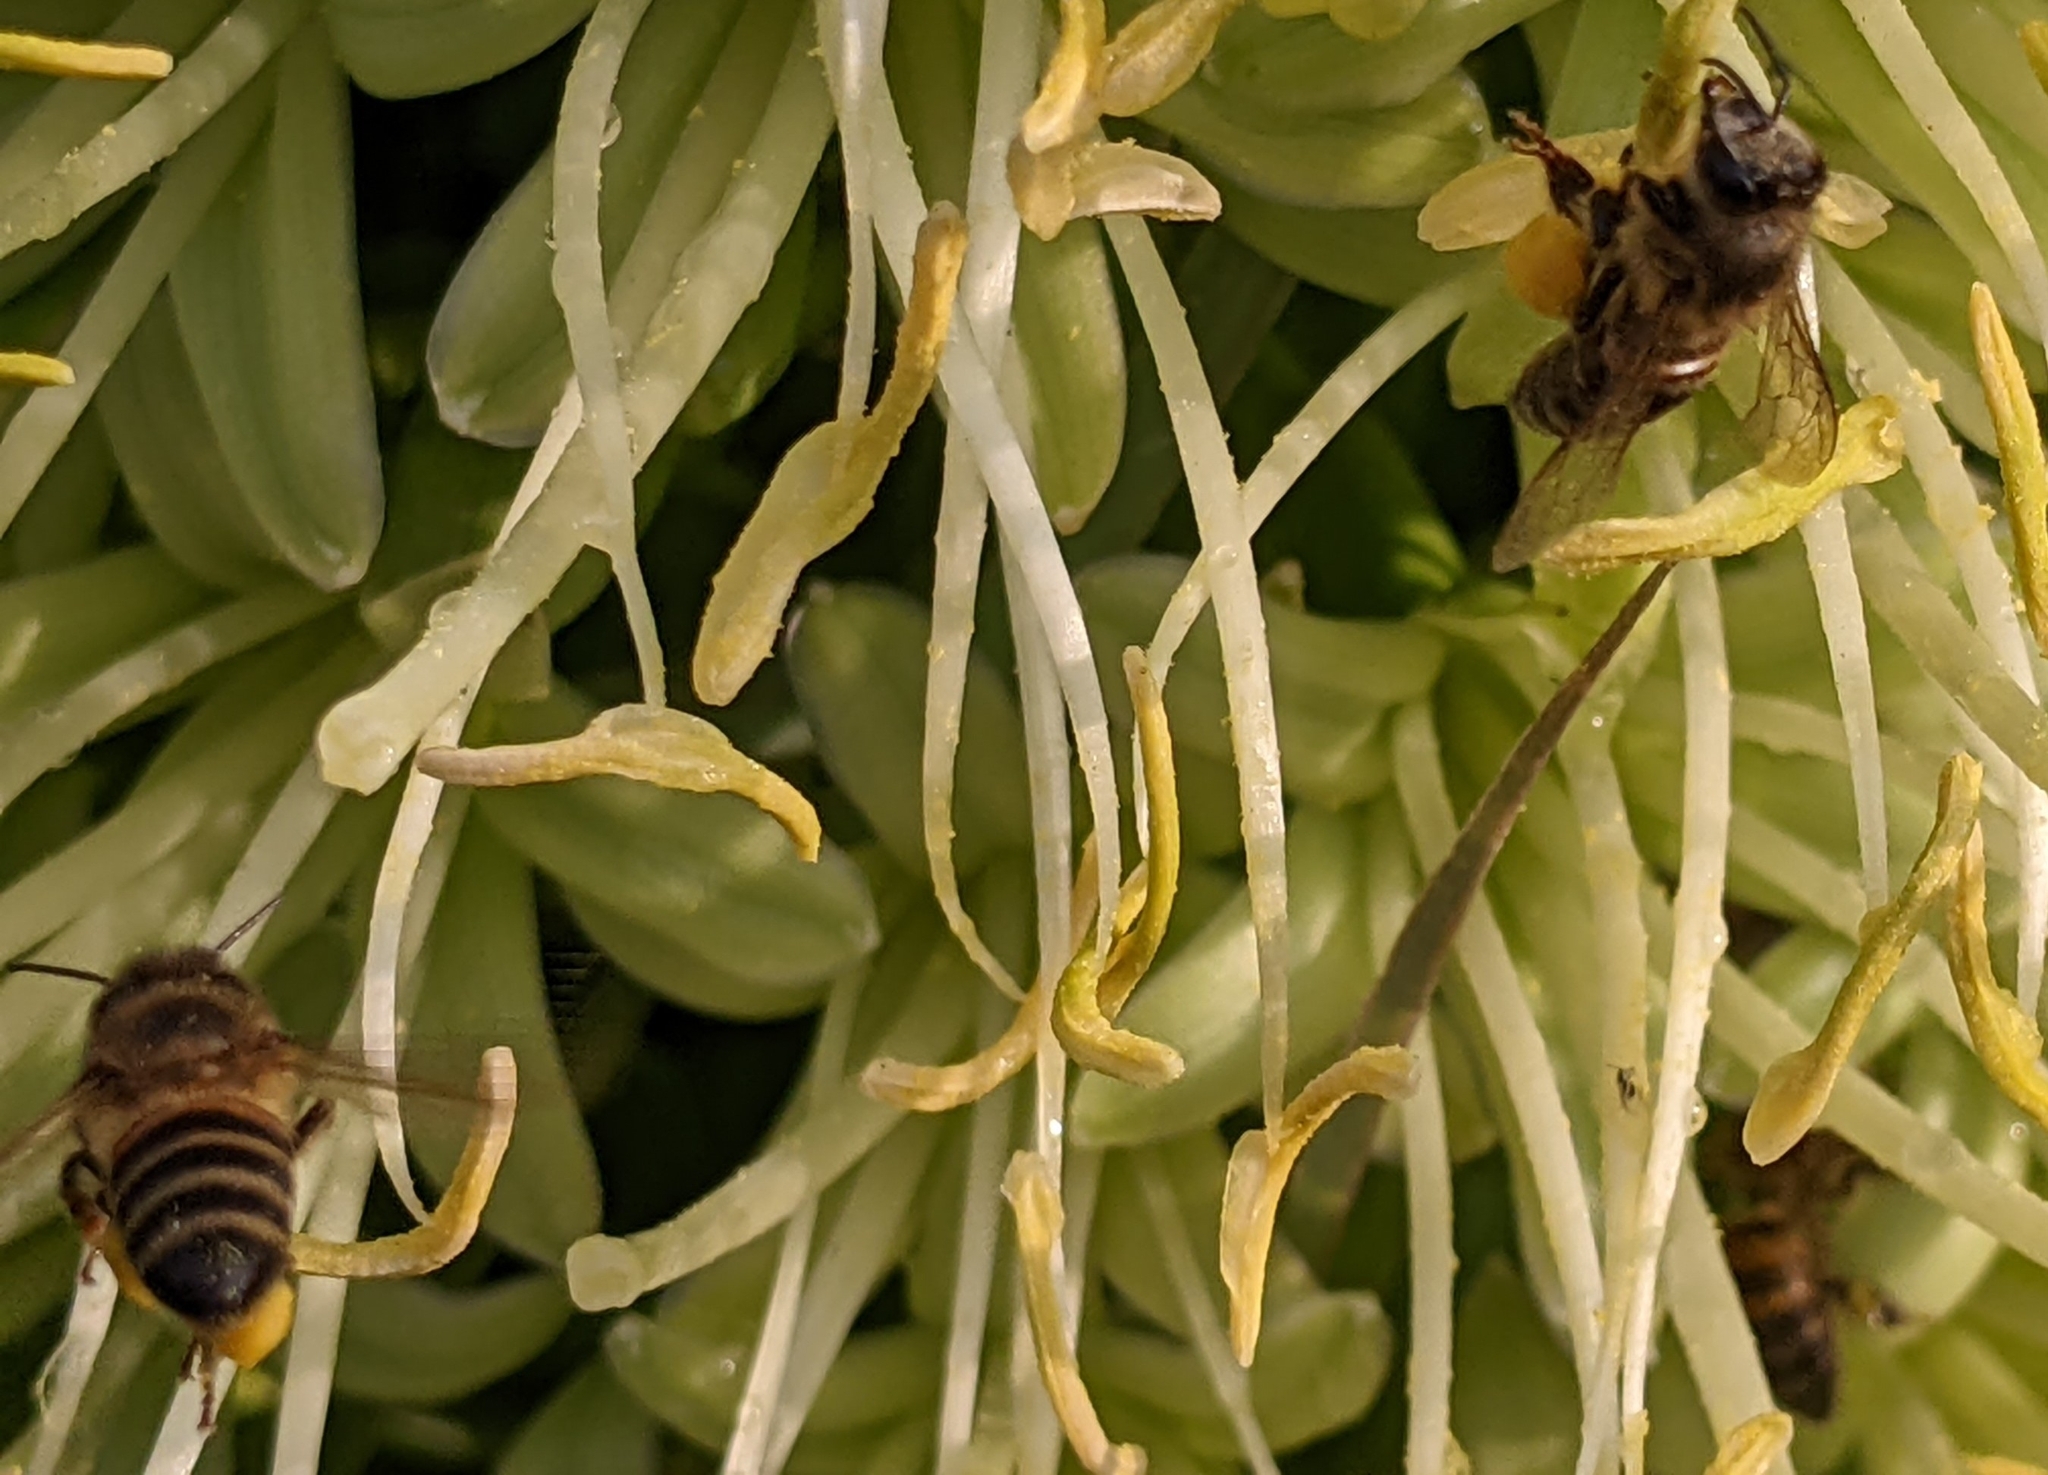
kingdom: Animalia
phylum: Arthropoda
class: Insecta
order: Hymenoptera
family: Apidae
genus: Apis
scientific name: Apis mellifera
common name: Honey bee
